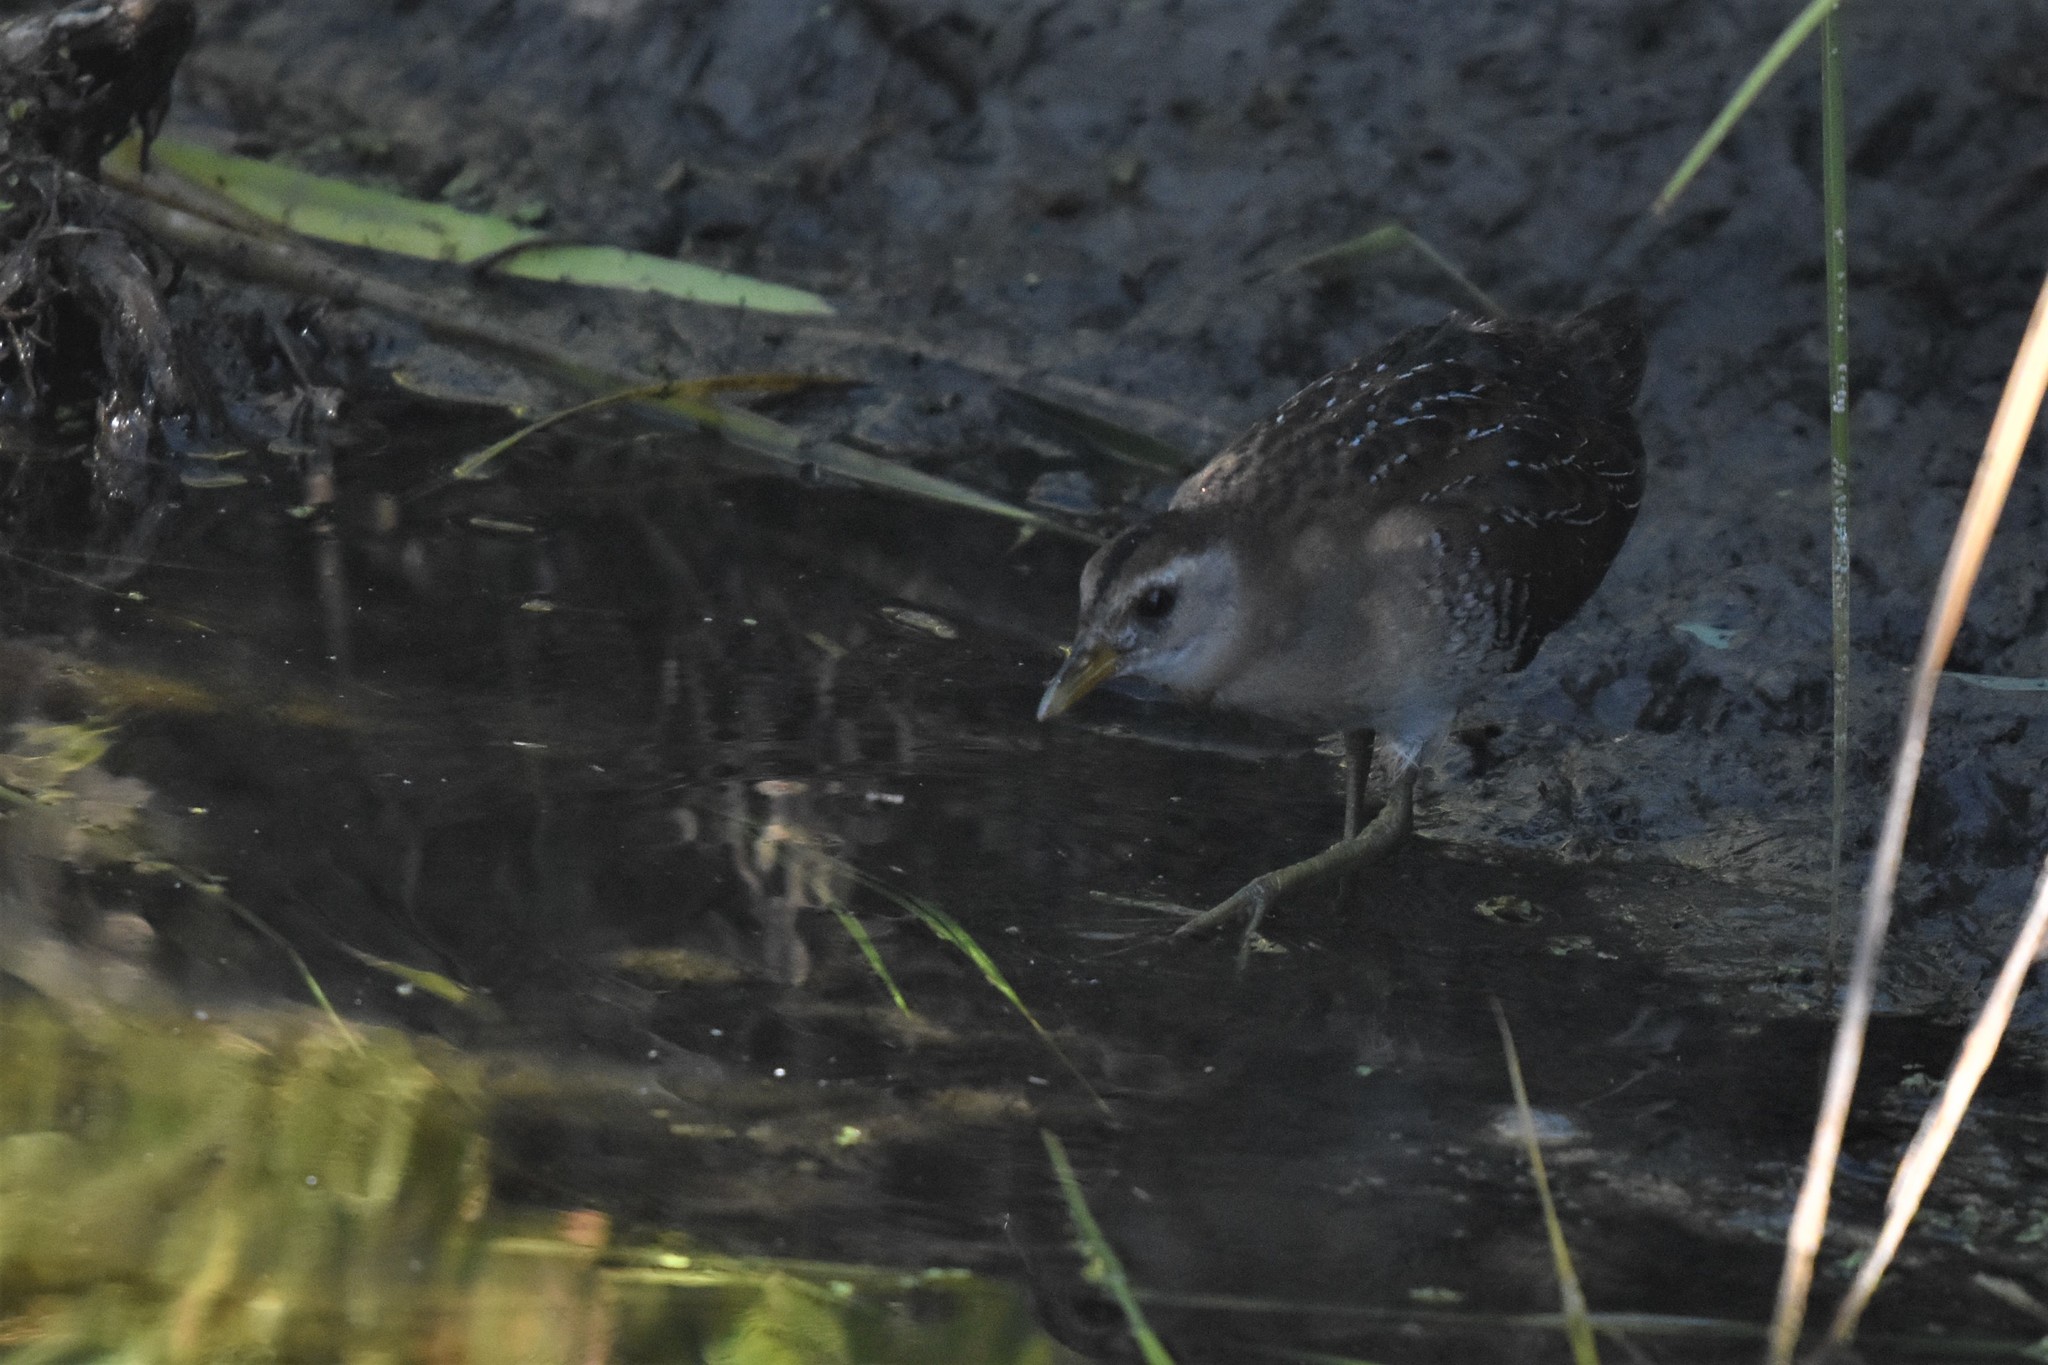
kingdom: Animalia
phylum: Chordata
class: Aves
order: Gruiformes
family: Rallidae
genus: Porzana
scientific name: Porzana carolina
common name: Sora
